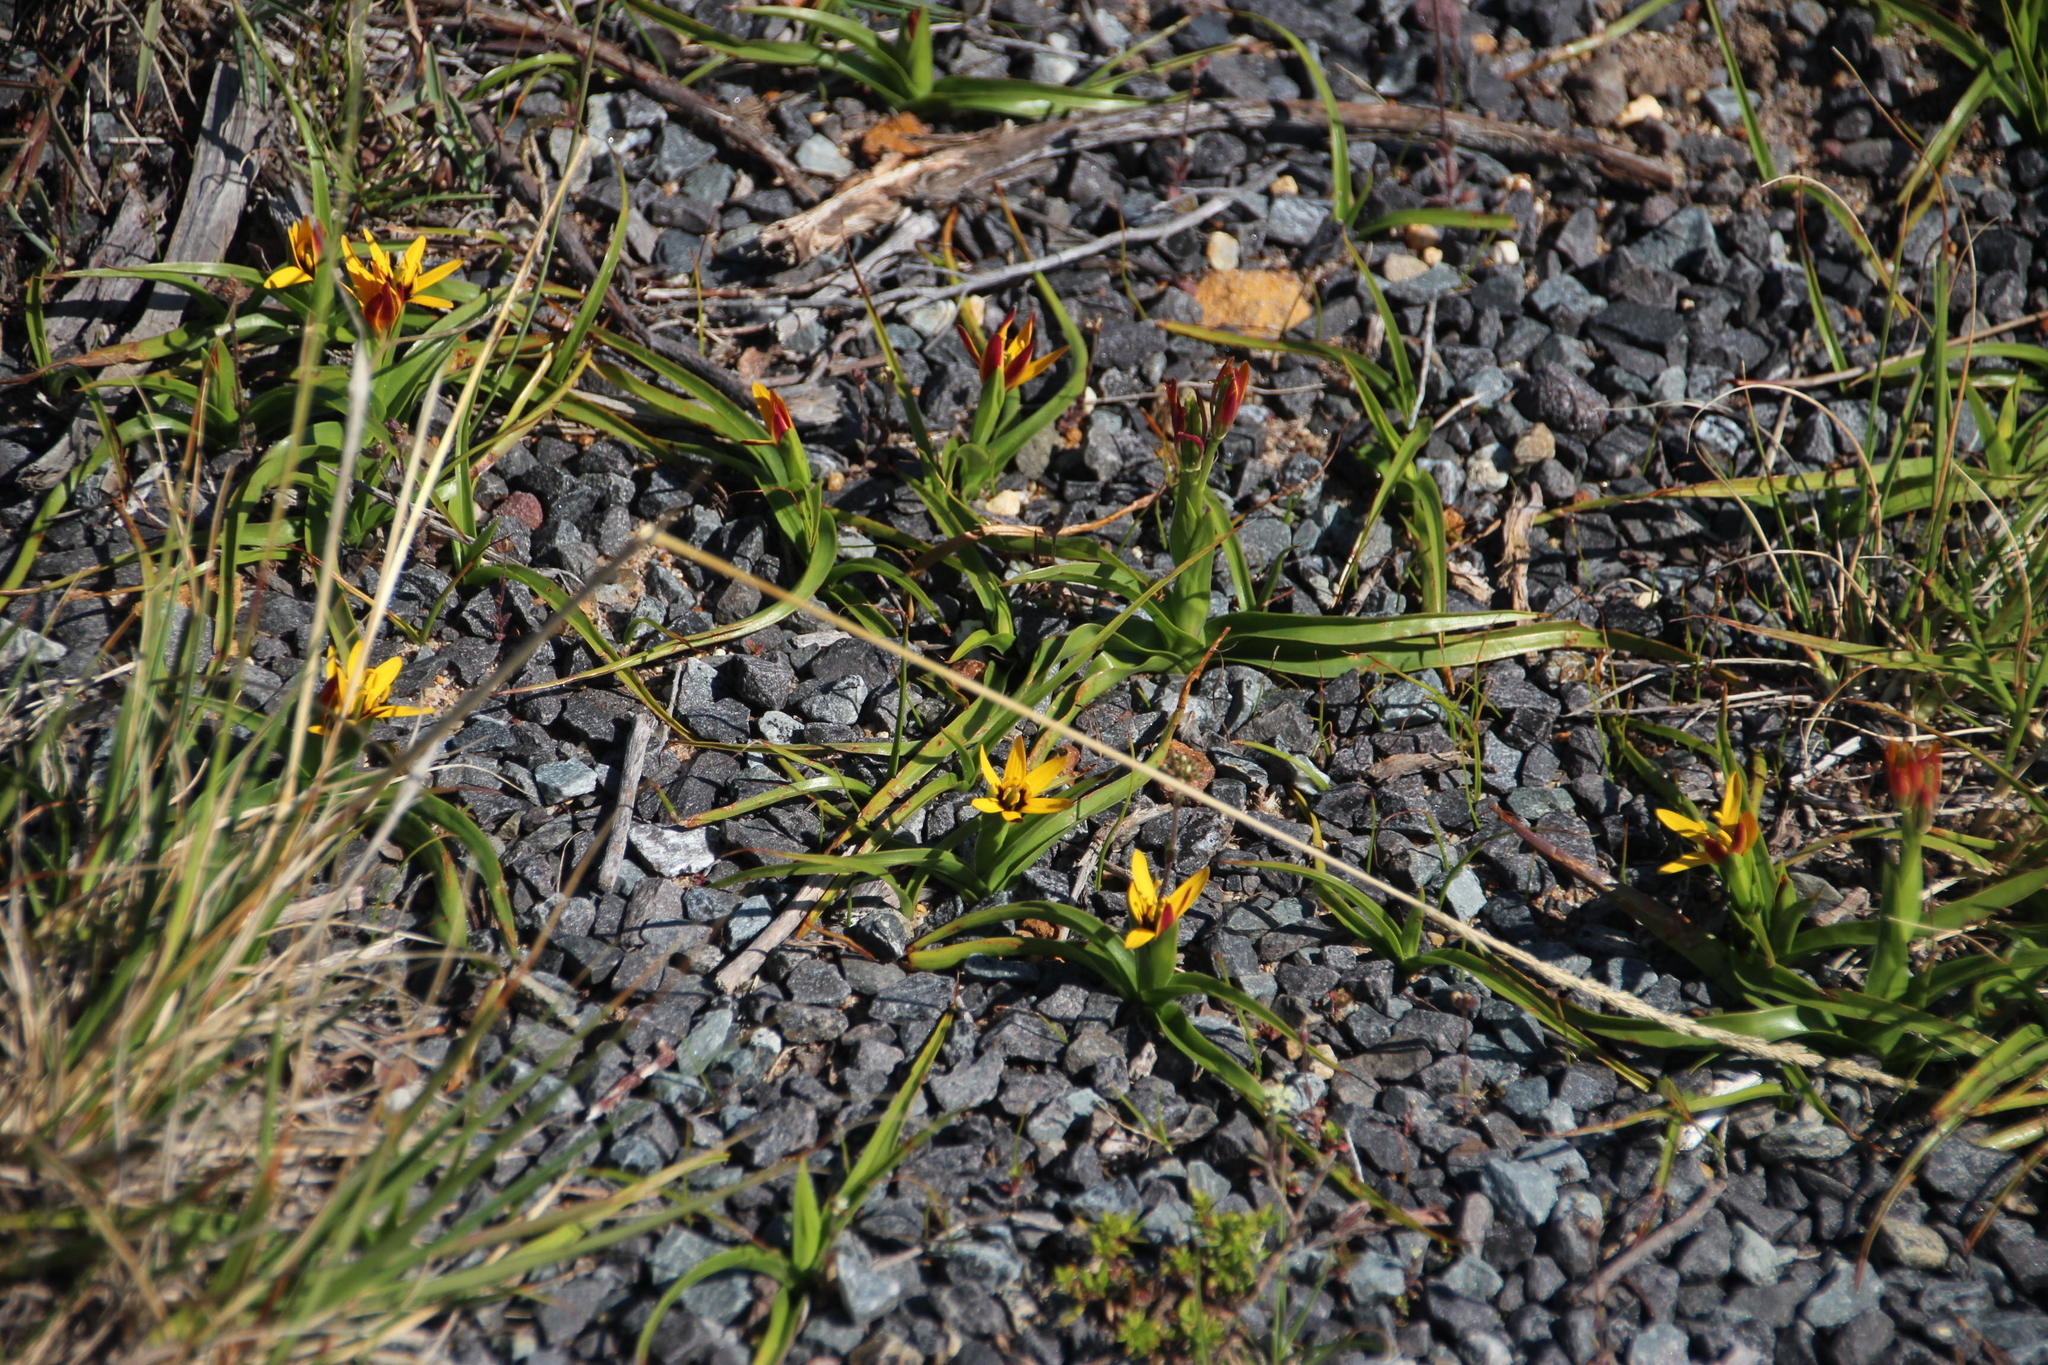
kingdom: Plantae
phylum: Tracheophyta
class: Liliopsida
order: Liliales
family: Colchicaceae
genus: Baeometra
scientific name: Baeometra uniflora
